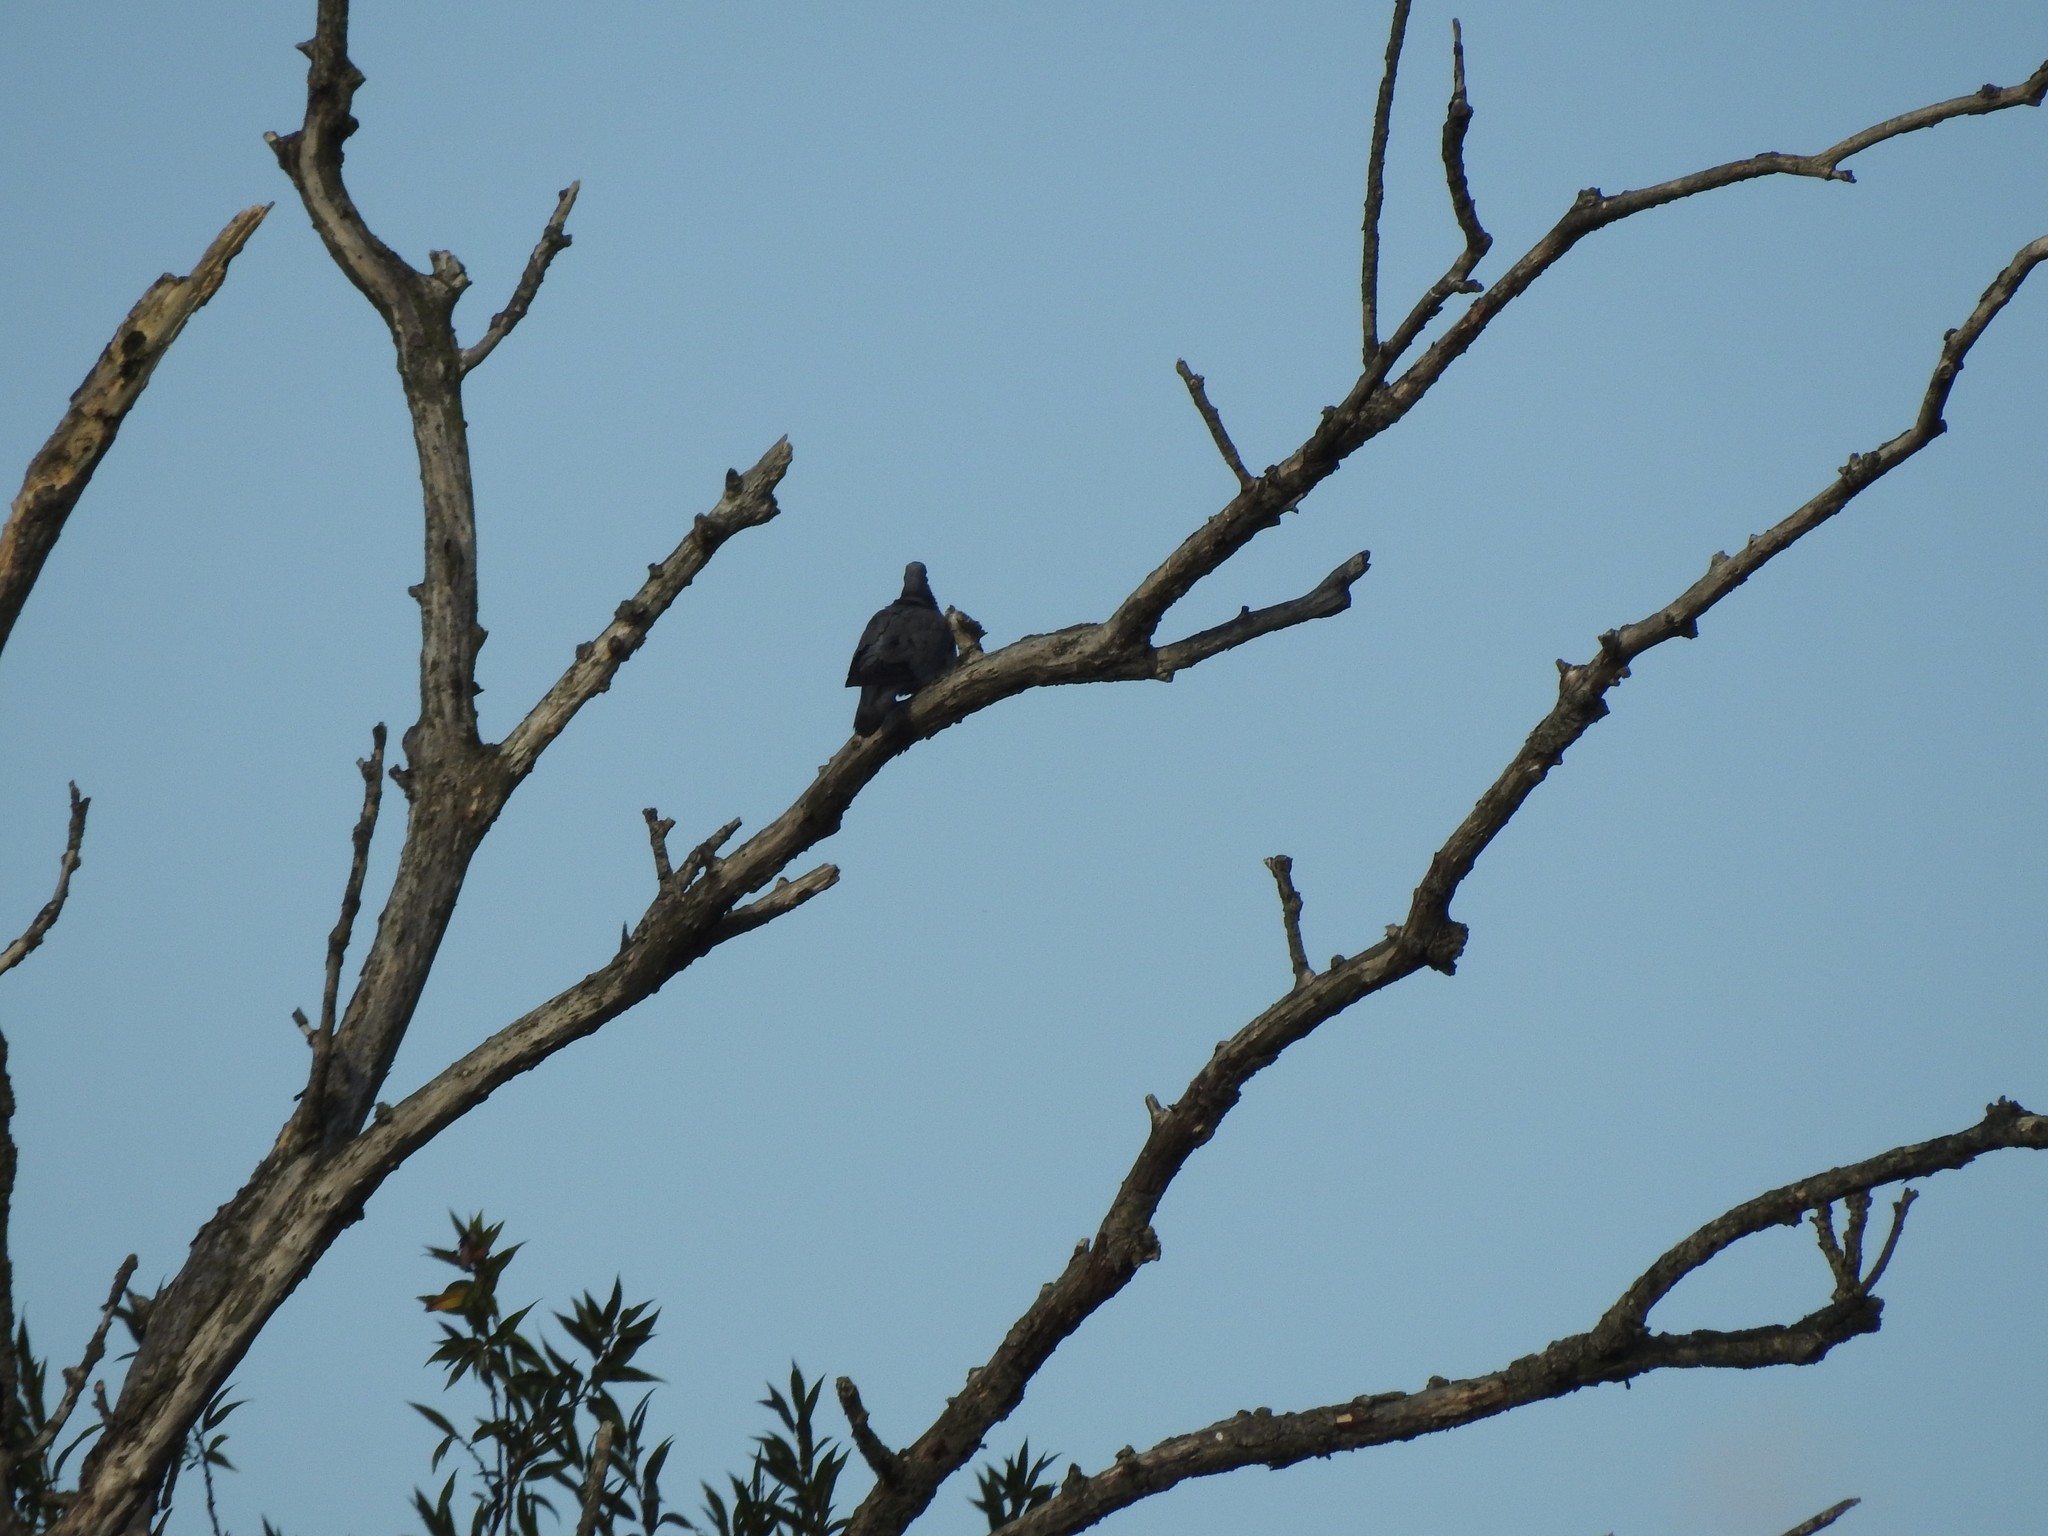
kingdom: Animalia
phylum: Chordata
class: Aves
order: Columbiformes
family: Columbidae
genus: Columba
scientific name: Columba palumbus
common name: Common wood pigeon
